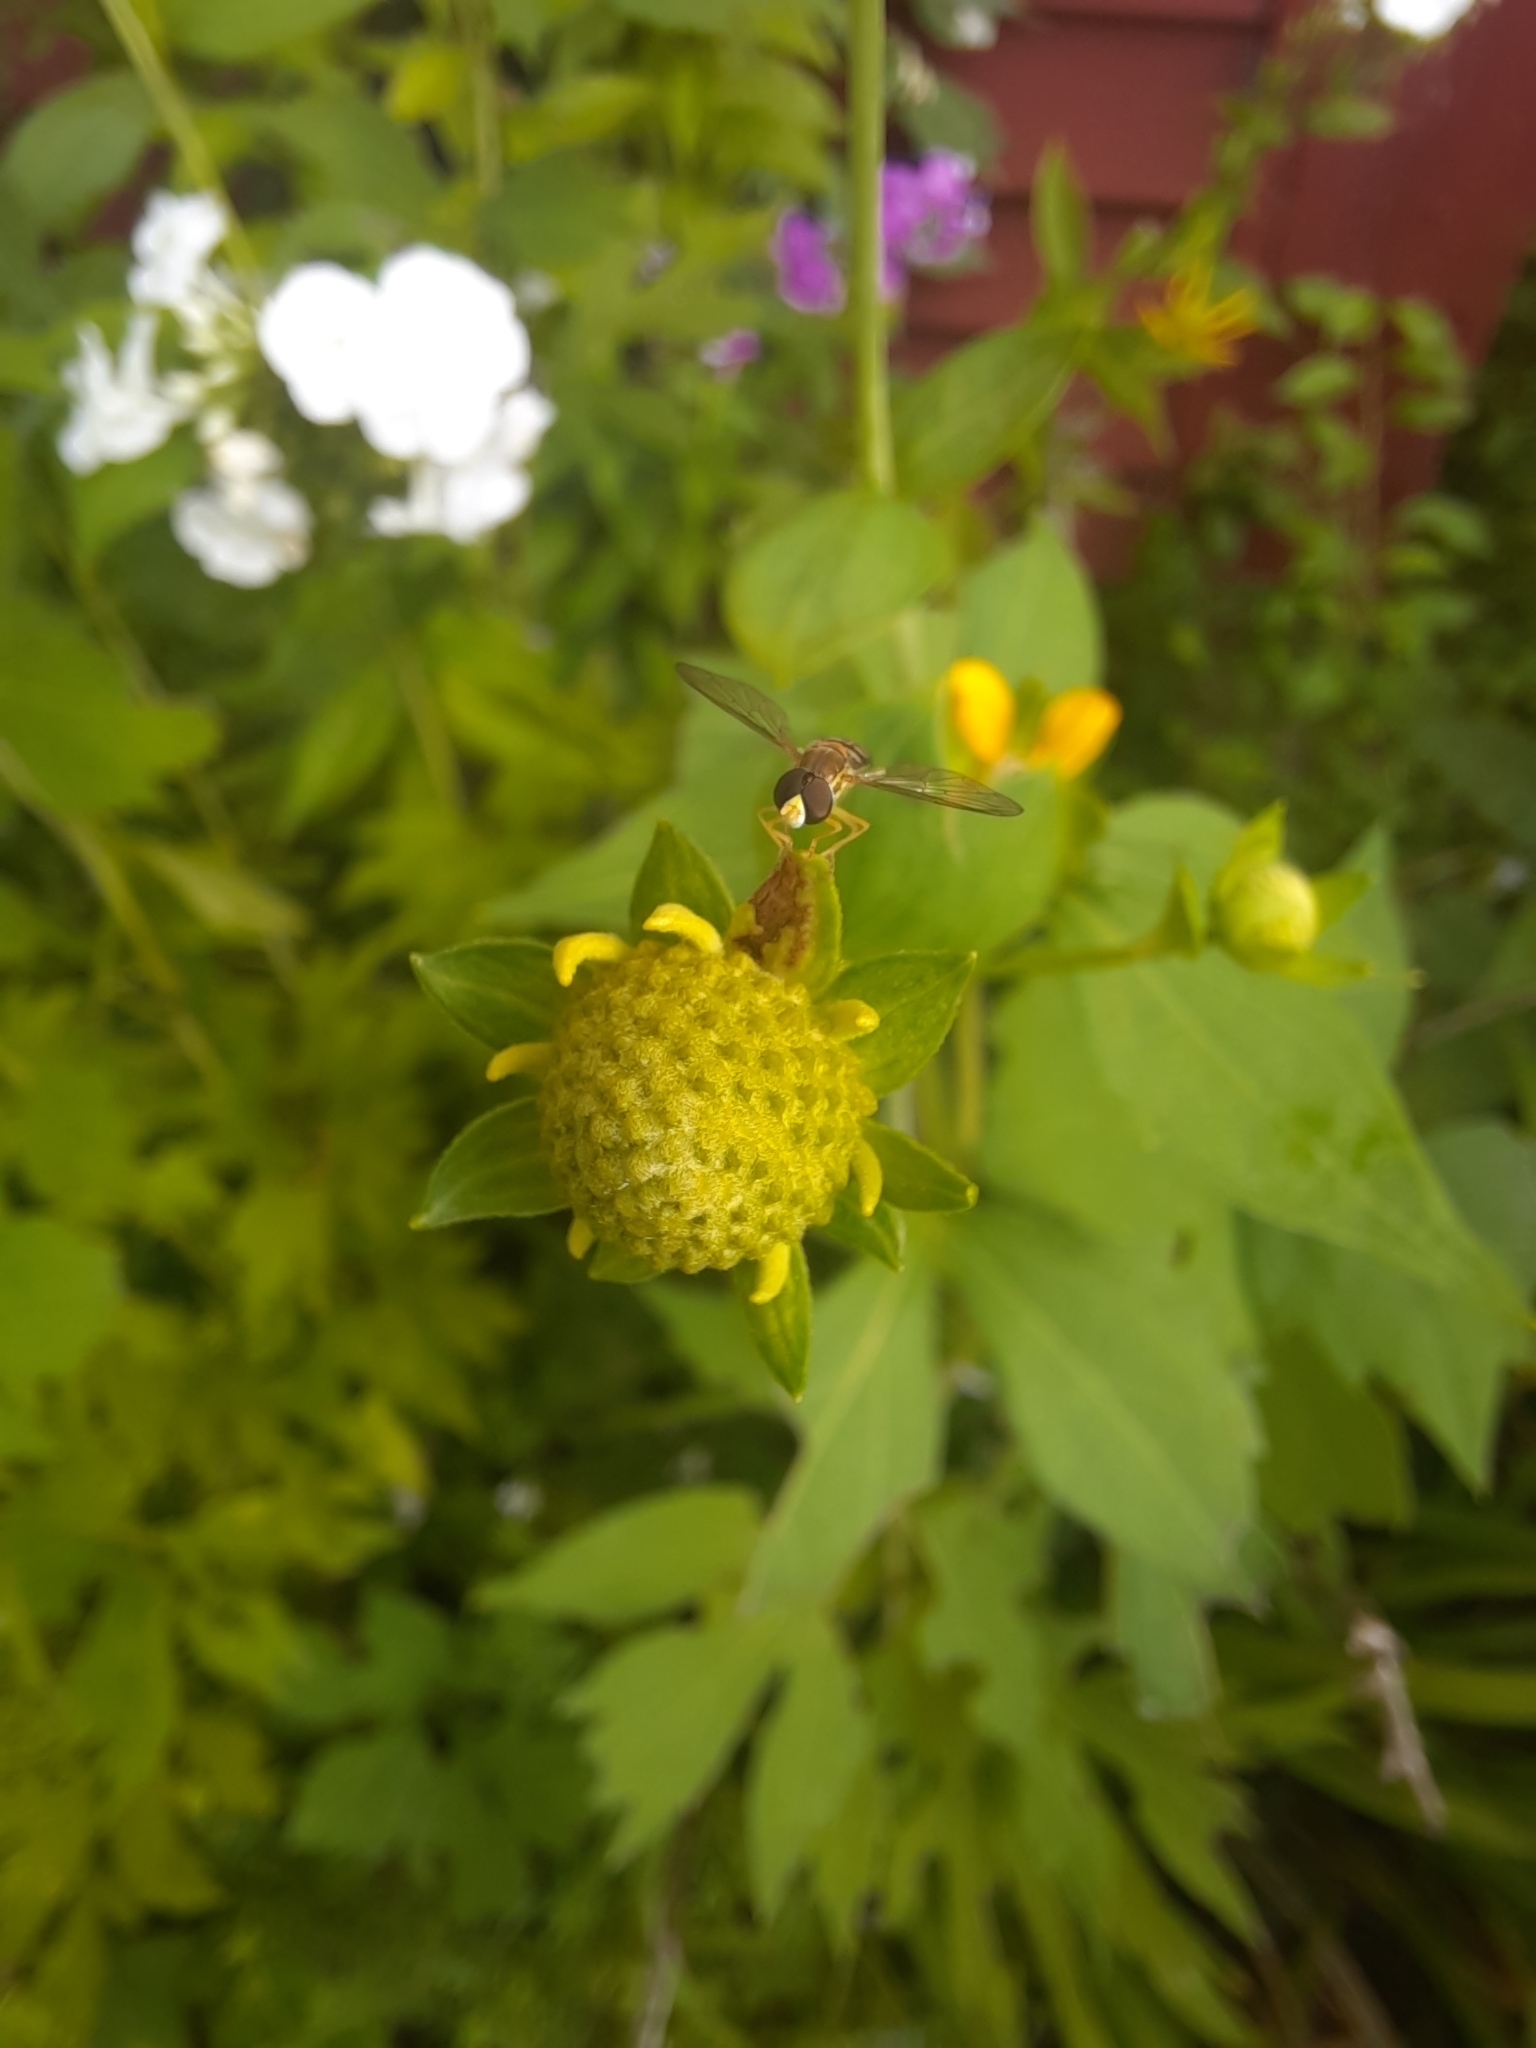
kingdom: Animalia
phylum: Arthropoda
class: Insecta
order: Diptera
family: Syrphidae
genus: Toxomerus
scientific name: Toxomerus marginatus
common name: Syrphid fly
